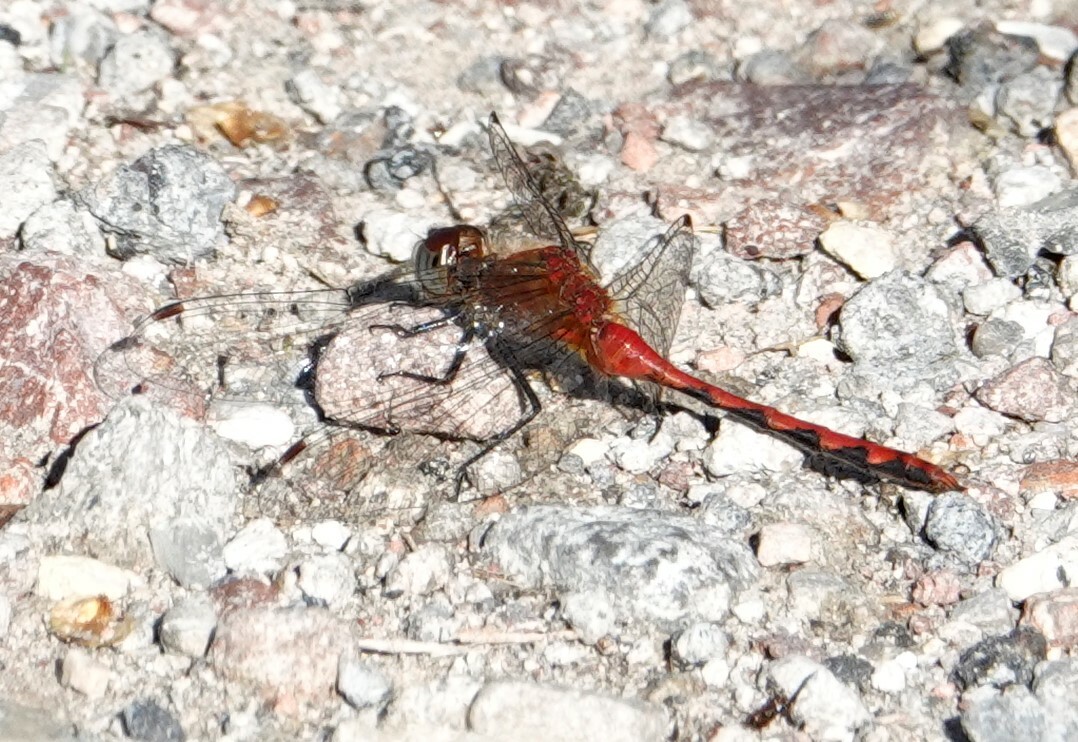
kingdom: Animalia
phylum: Arthropoda
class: Insecta
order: Odonata
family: Libellulidae
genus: Sympetrum
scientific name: Sympetrum obtrusum
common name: White-faced meadowhawk
